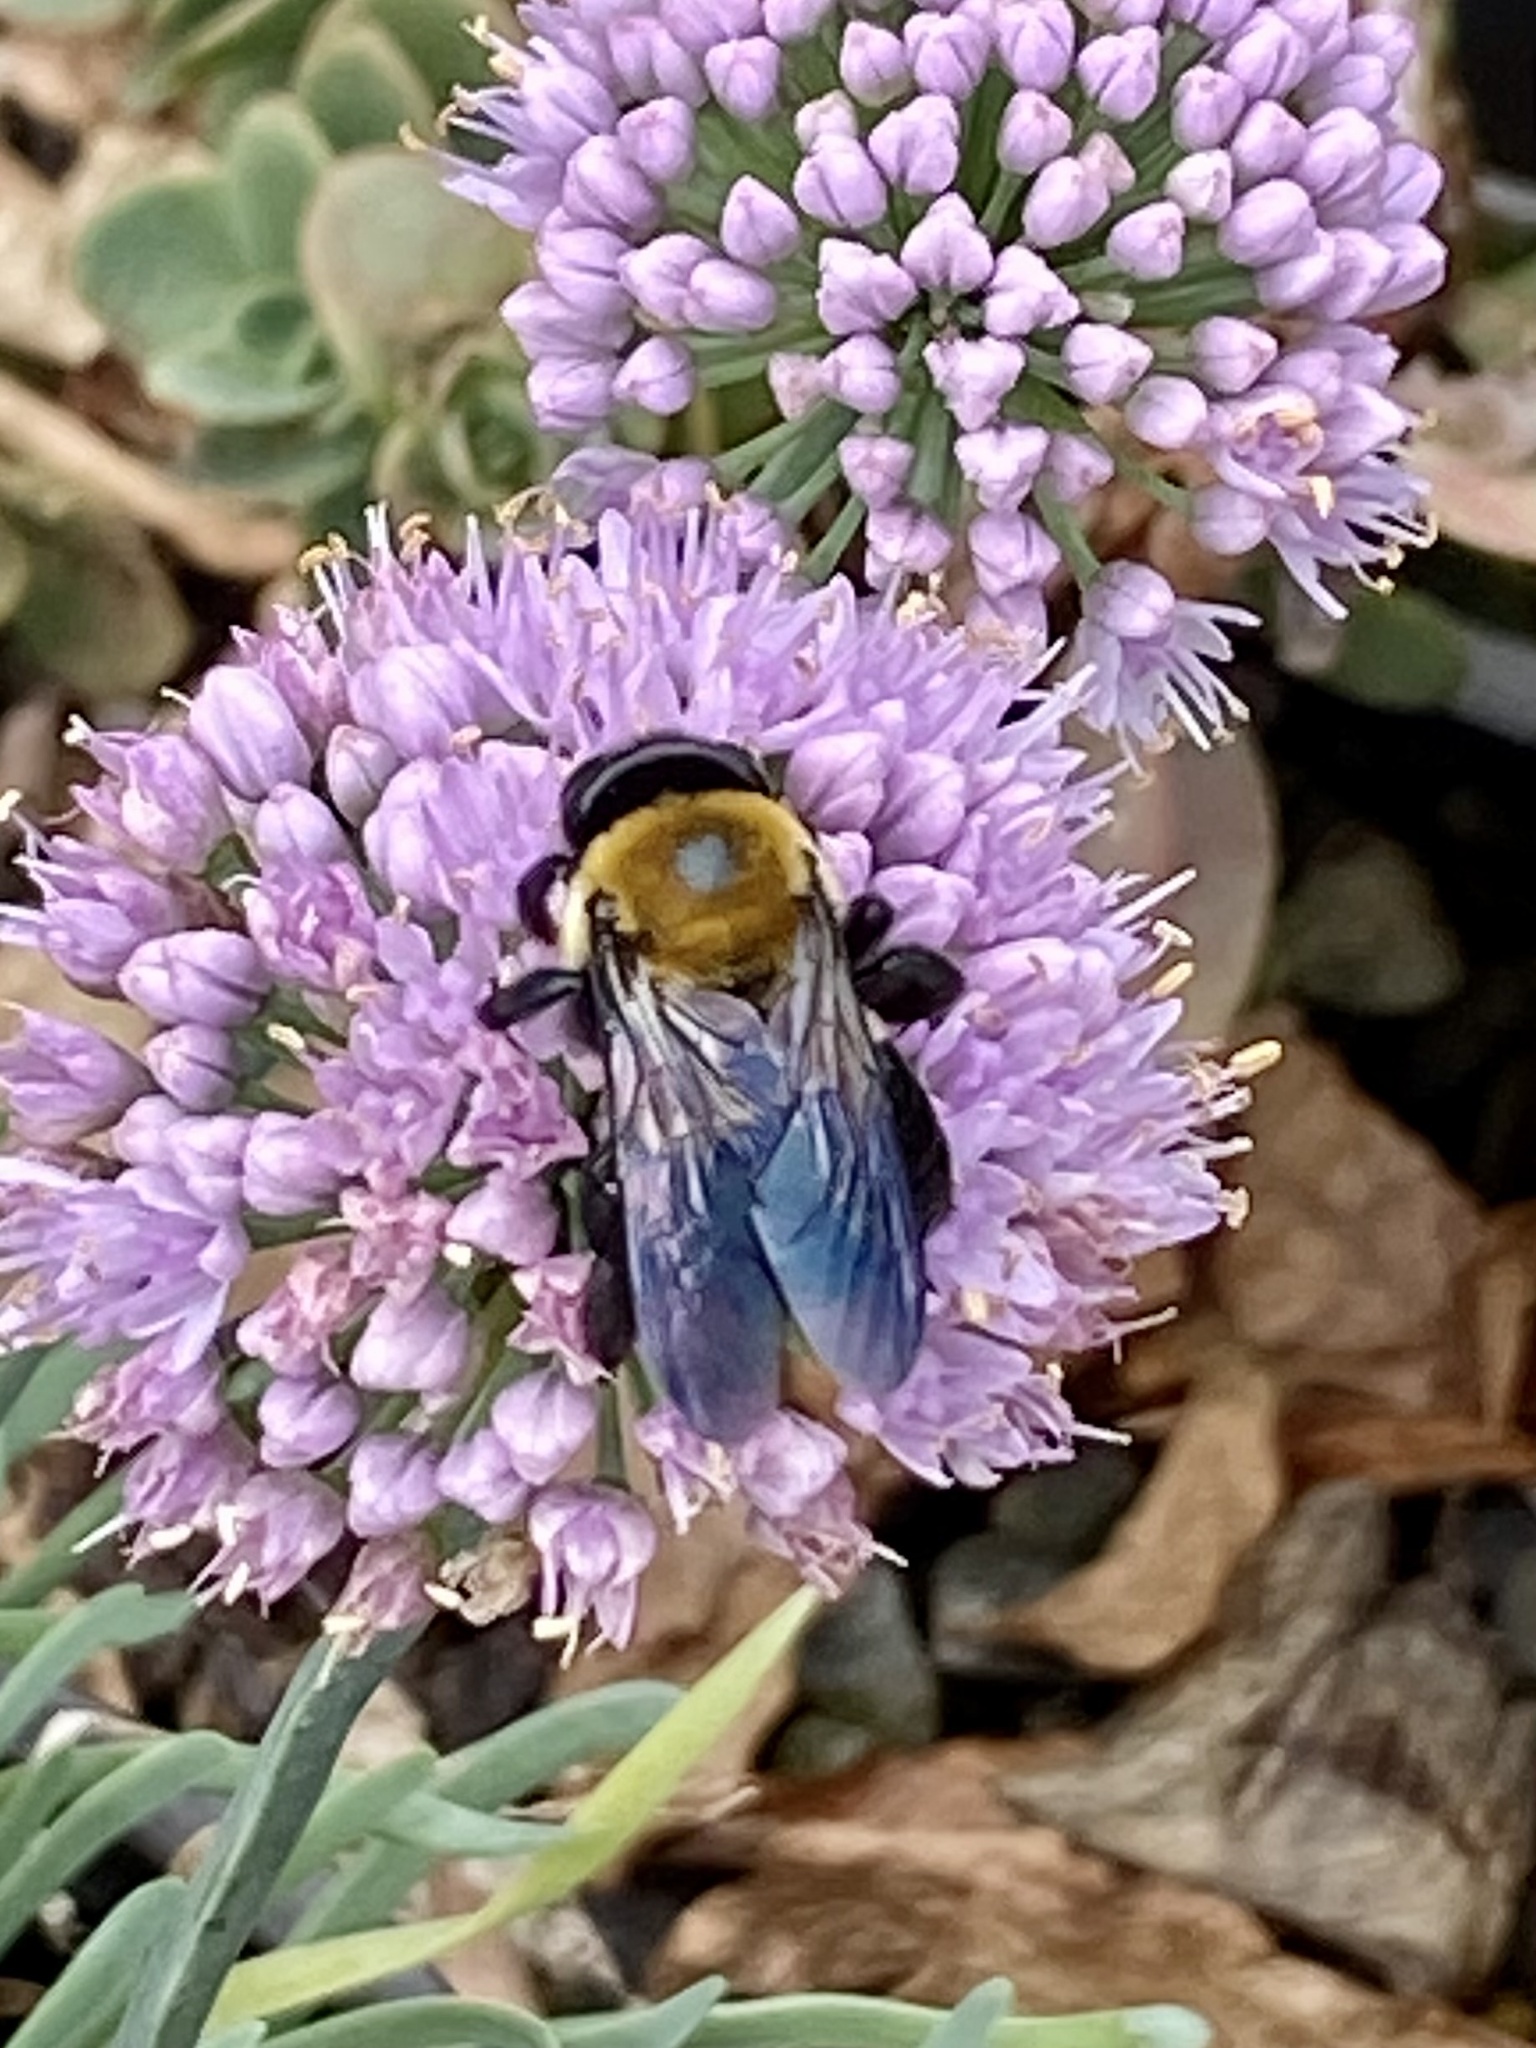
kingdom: Animalia
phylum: Arthropoda
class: Insecta
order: Hymenoptera
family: Apidae
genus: Xylocopa
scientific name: Xylocopa virginica
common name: Carpenter bee
